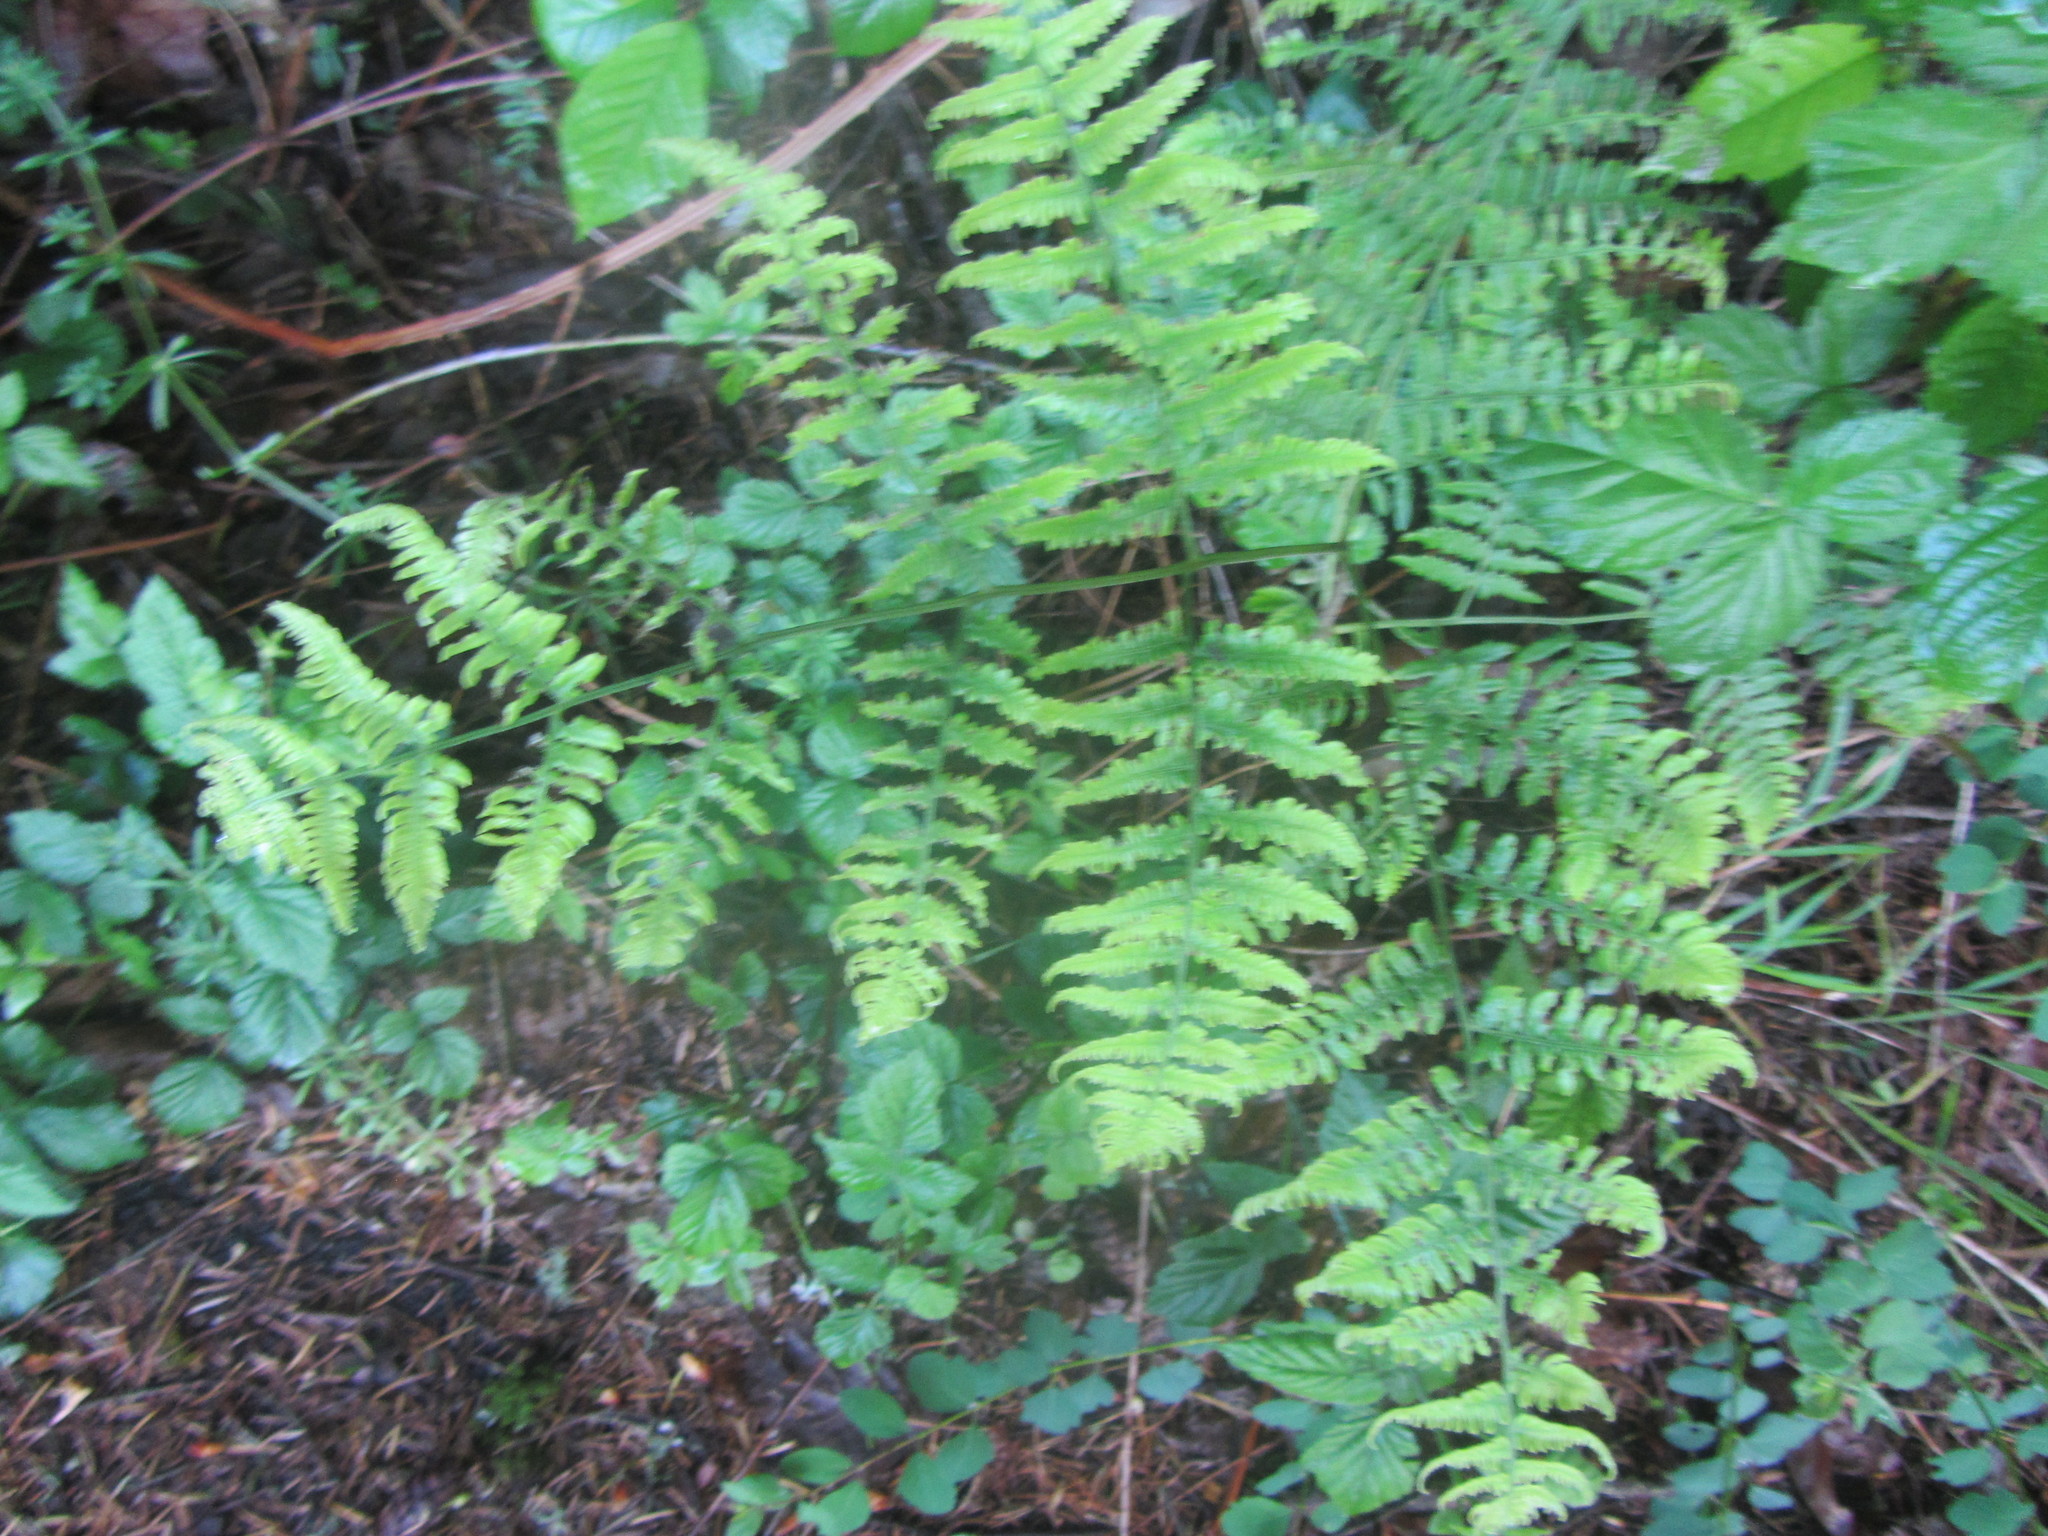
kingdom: Plantae
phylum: Tracheophyta
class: Polypodiopsida
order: Polypodiales
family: Dennstaedtiaceae
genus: Pteridium
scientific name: Pteridium aquilinum
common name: Bracken
